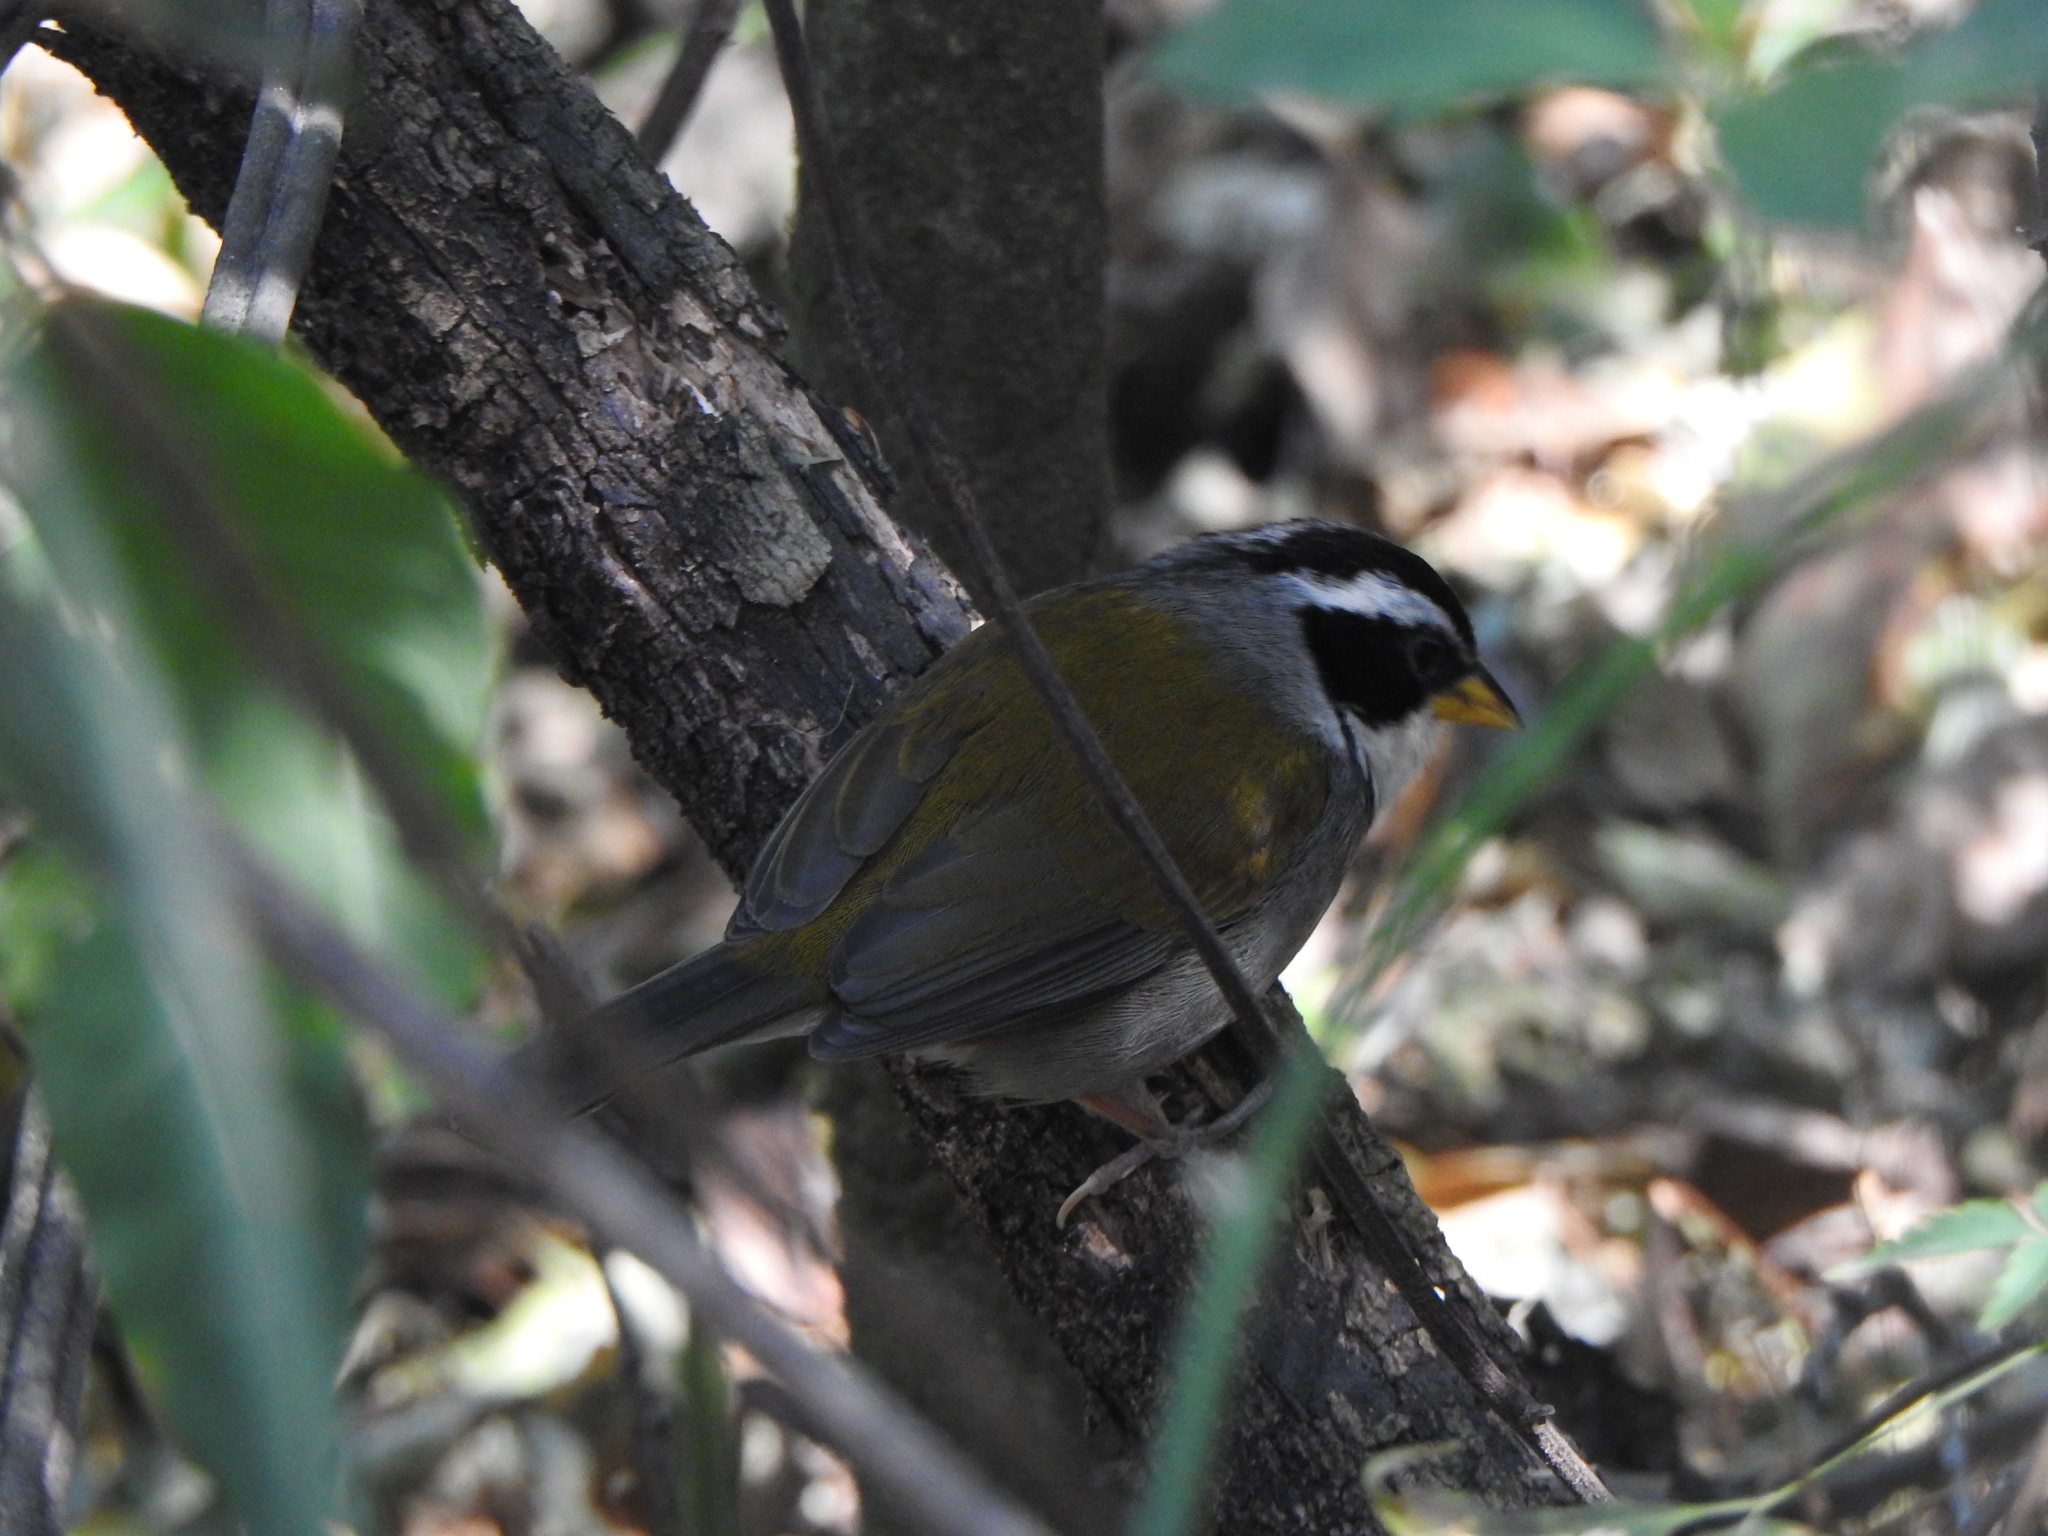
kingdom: Animalia
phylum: Chordata
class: Aves
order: Passeriformes
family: Passerellidae
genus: Arremon
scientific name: Arremon dorbignii
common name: Moss-backed sparrow
